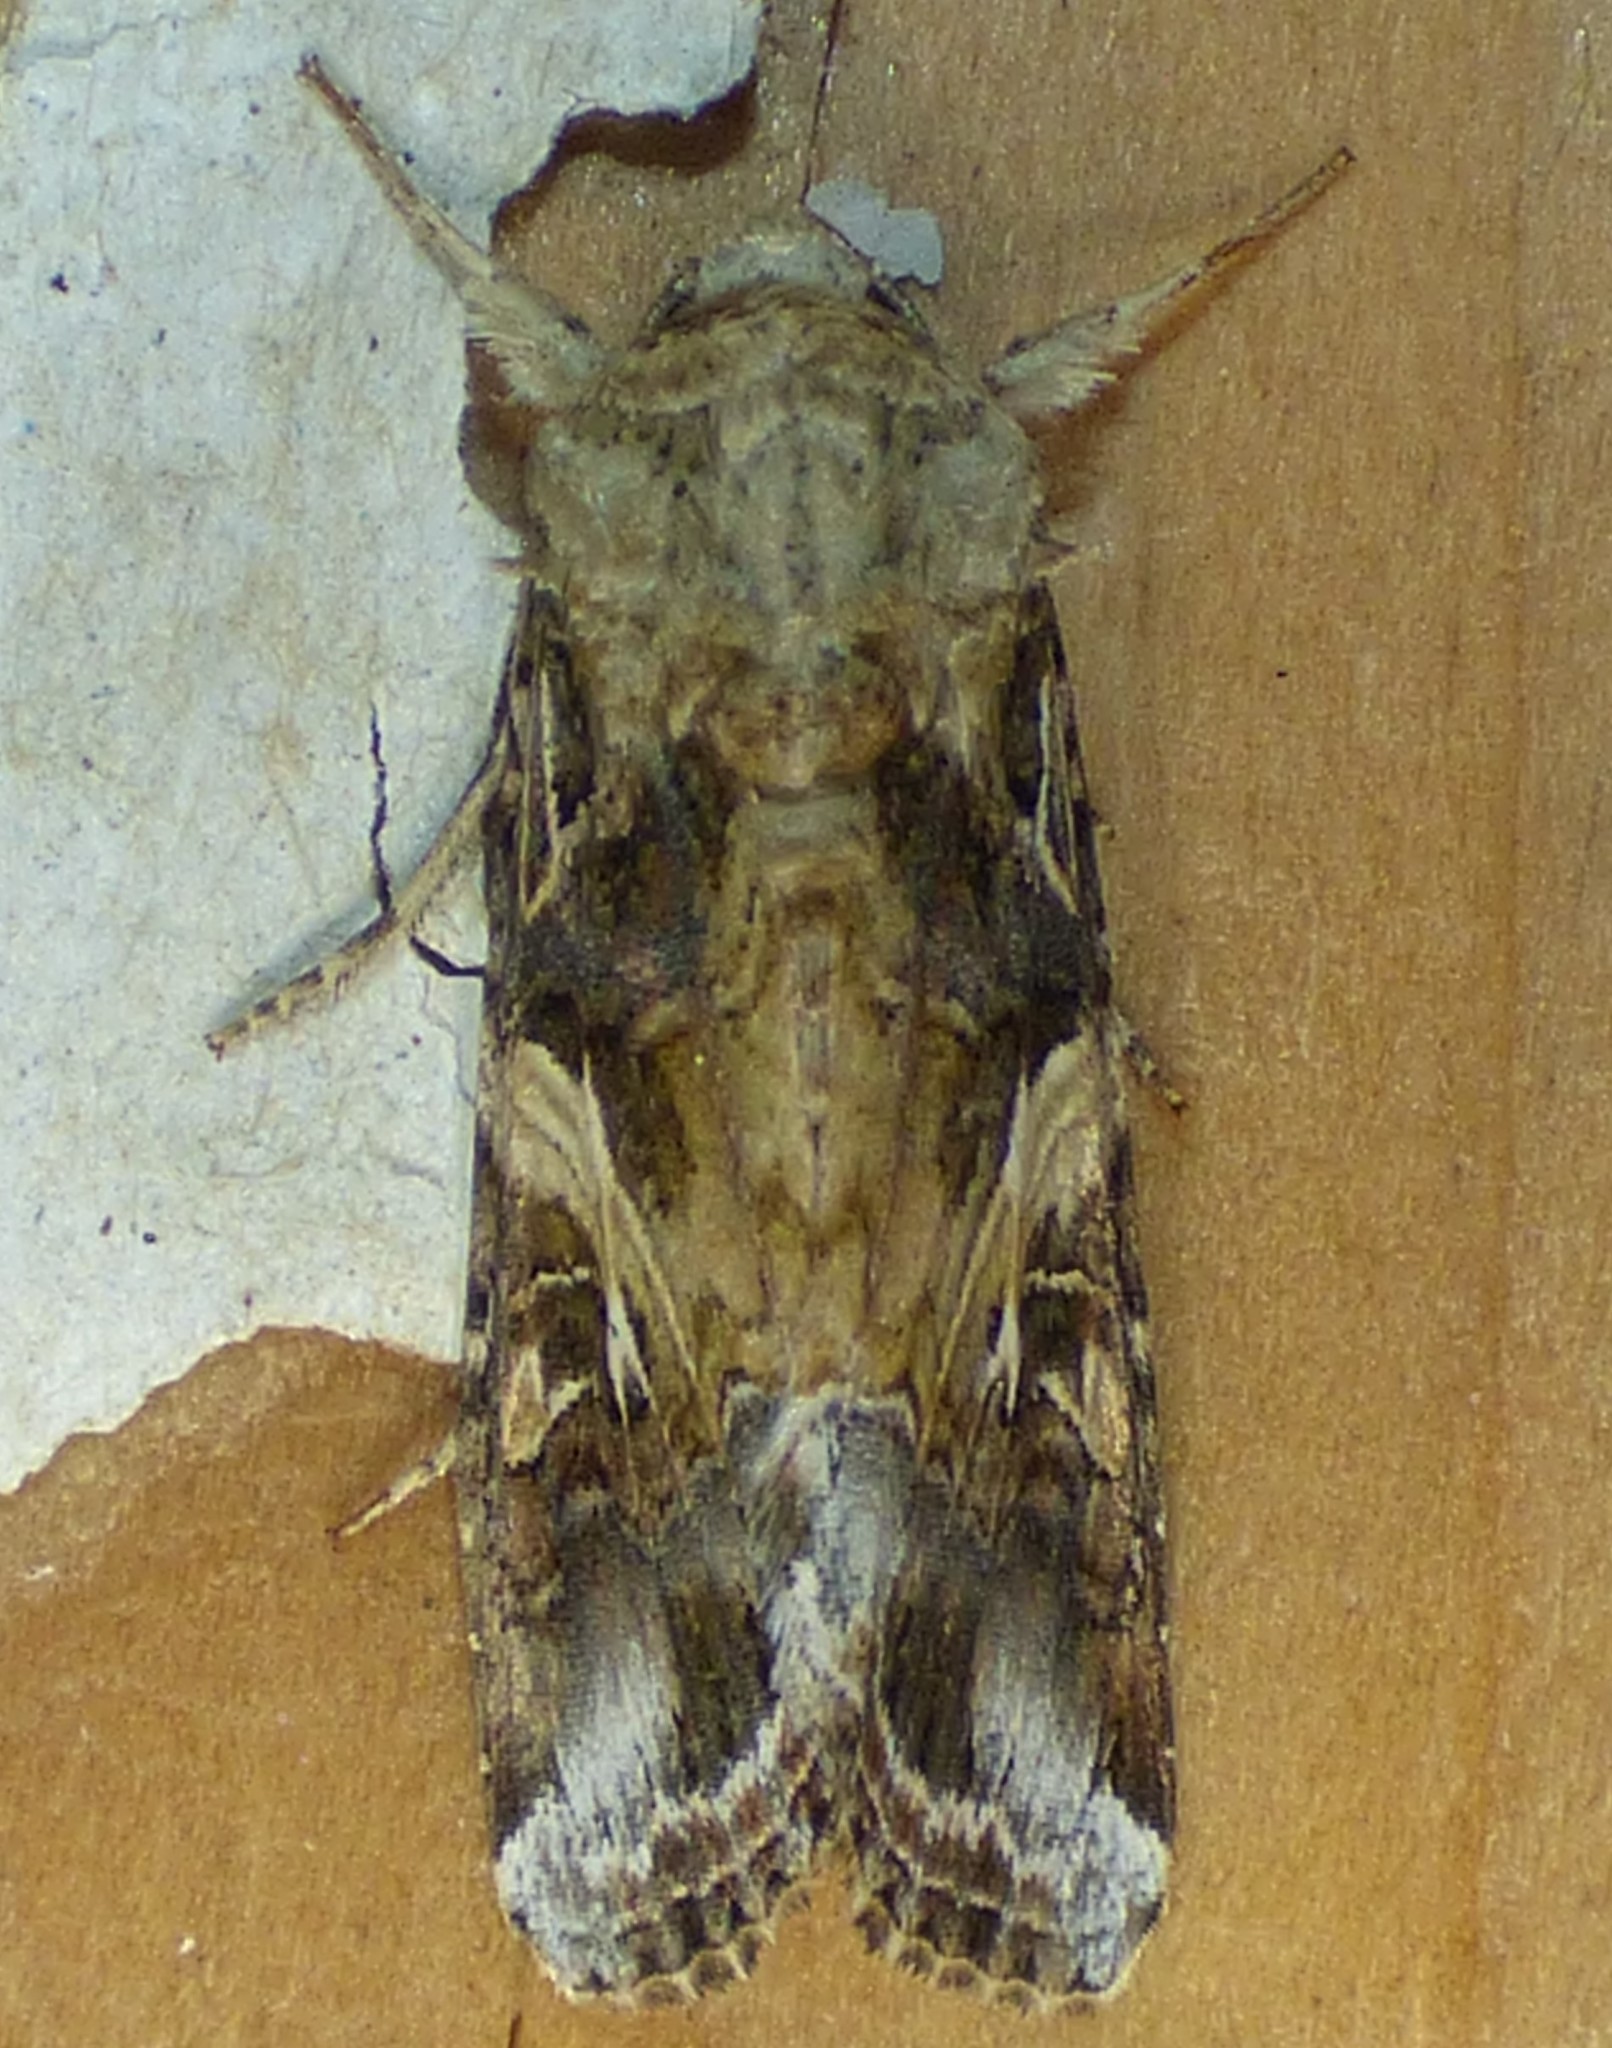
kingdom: Animalia
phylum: Arthropoda
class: Insecta
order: Lepidoptera
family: Noctuidae
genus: Spodoptera
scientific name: Spodoptera ornithogalli
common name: Yellow-striped armyworm
